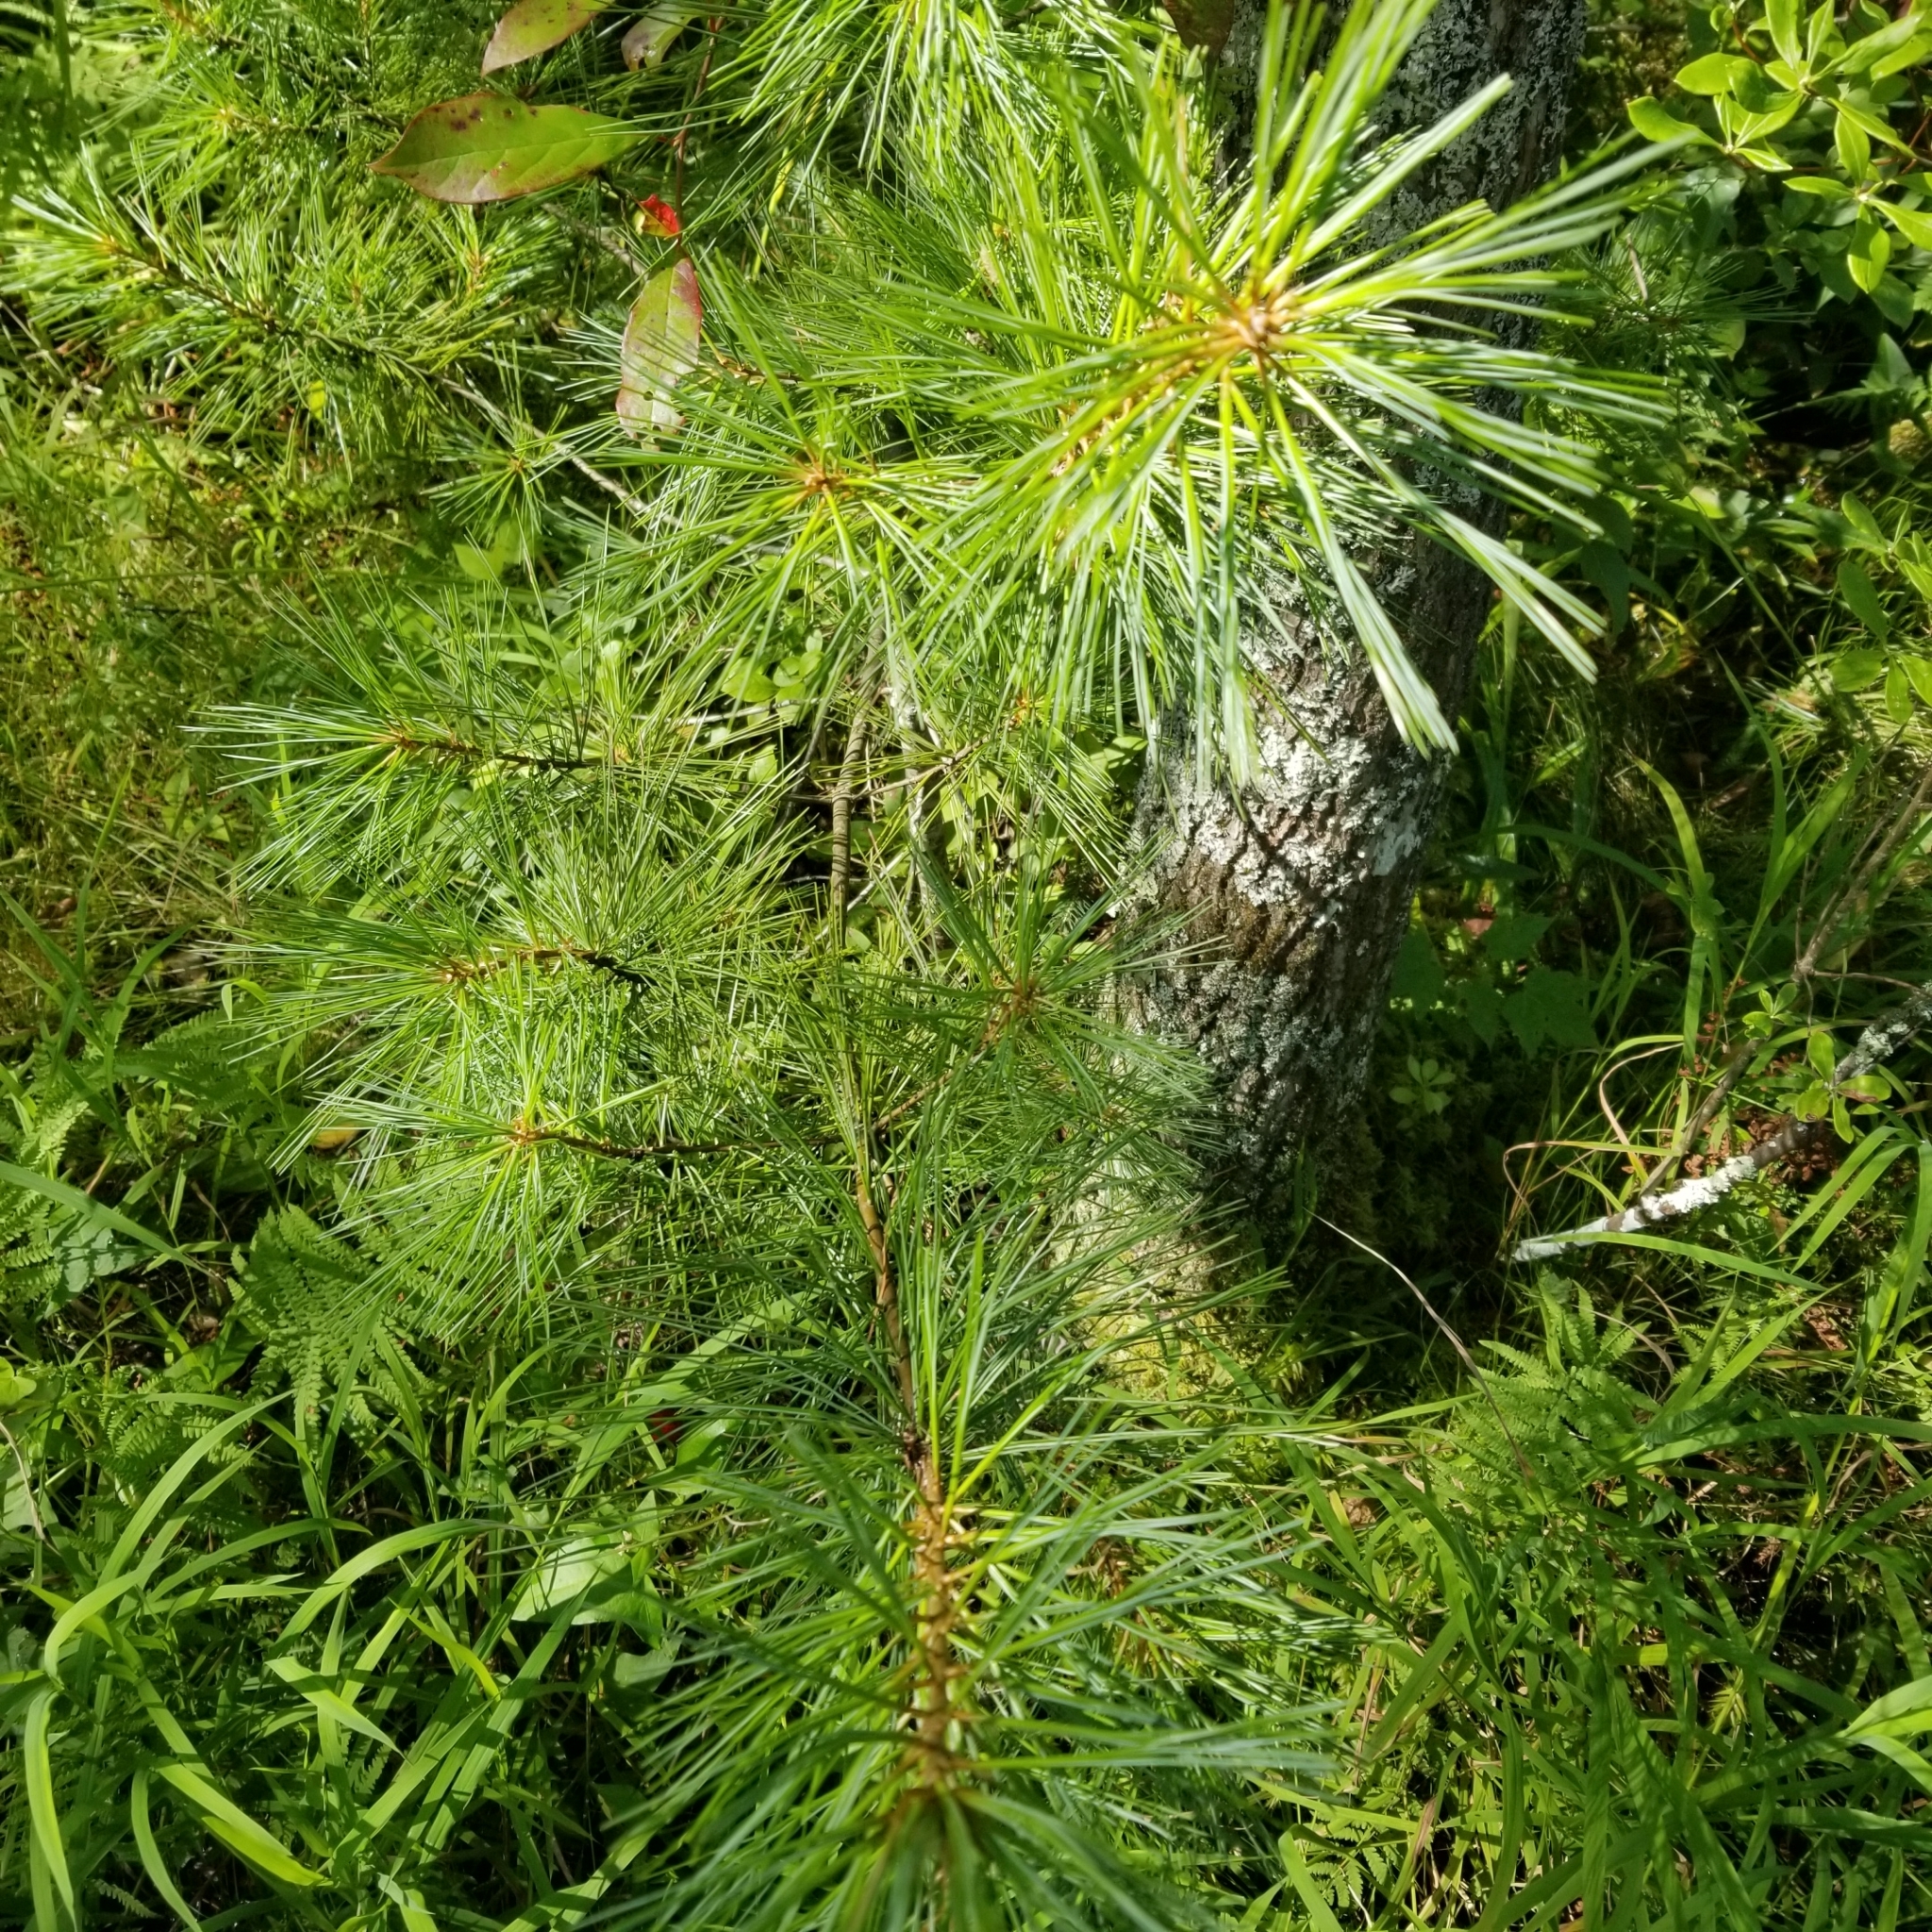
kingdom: Plantae
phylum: Tracheophyta
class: Pinopsida
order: Pinales
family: Pinaceae
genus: Pinus
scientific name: Pinus strobus
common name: Weymouth pine
